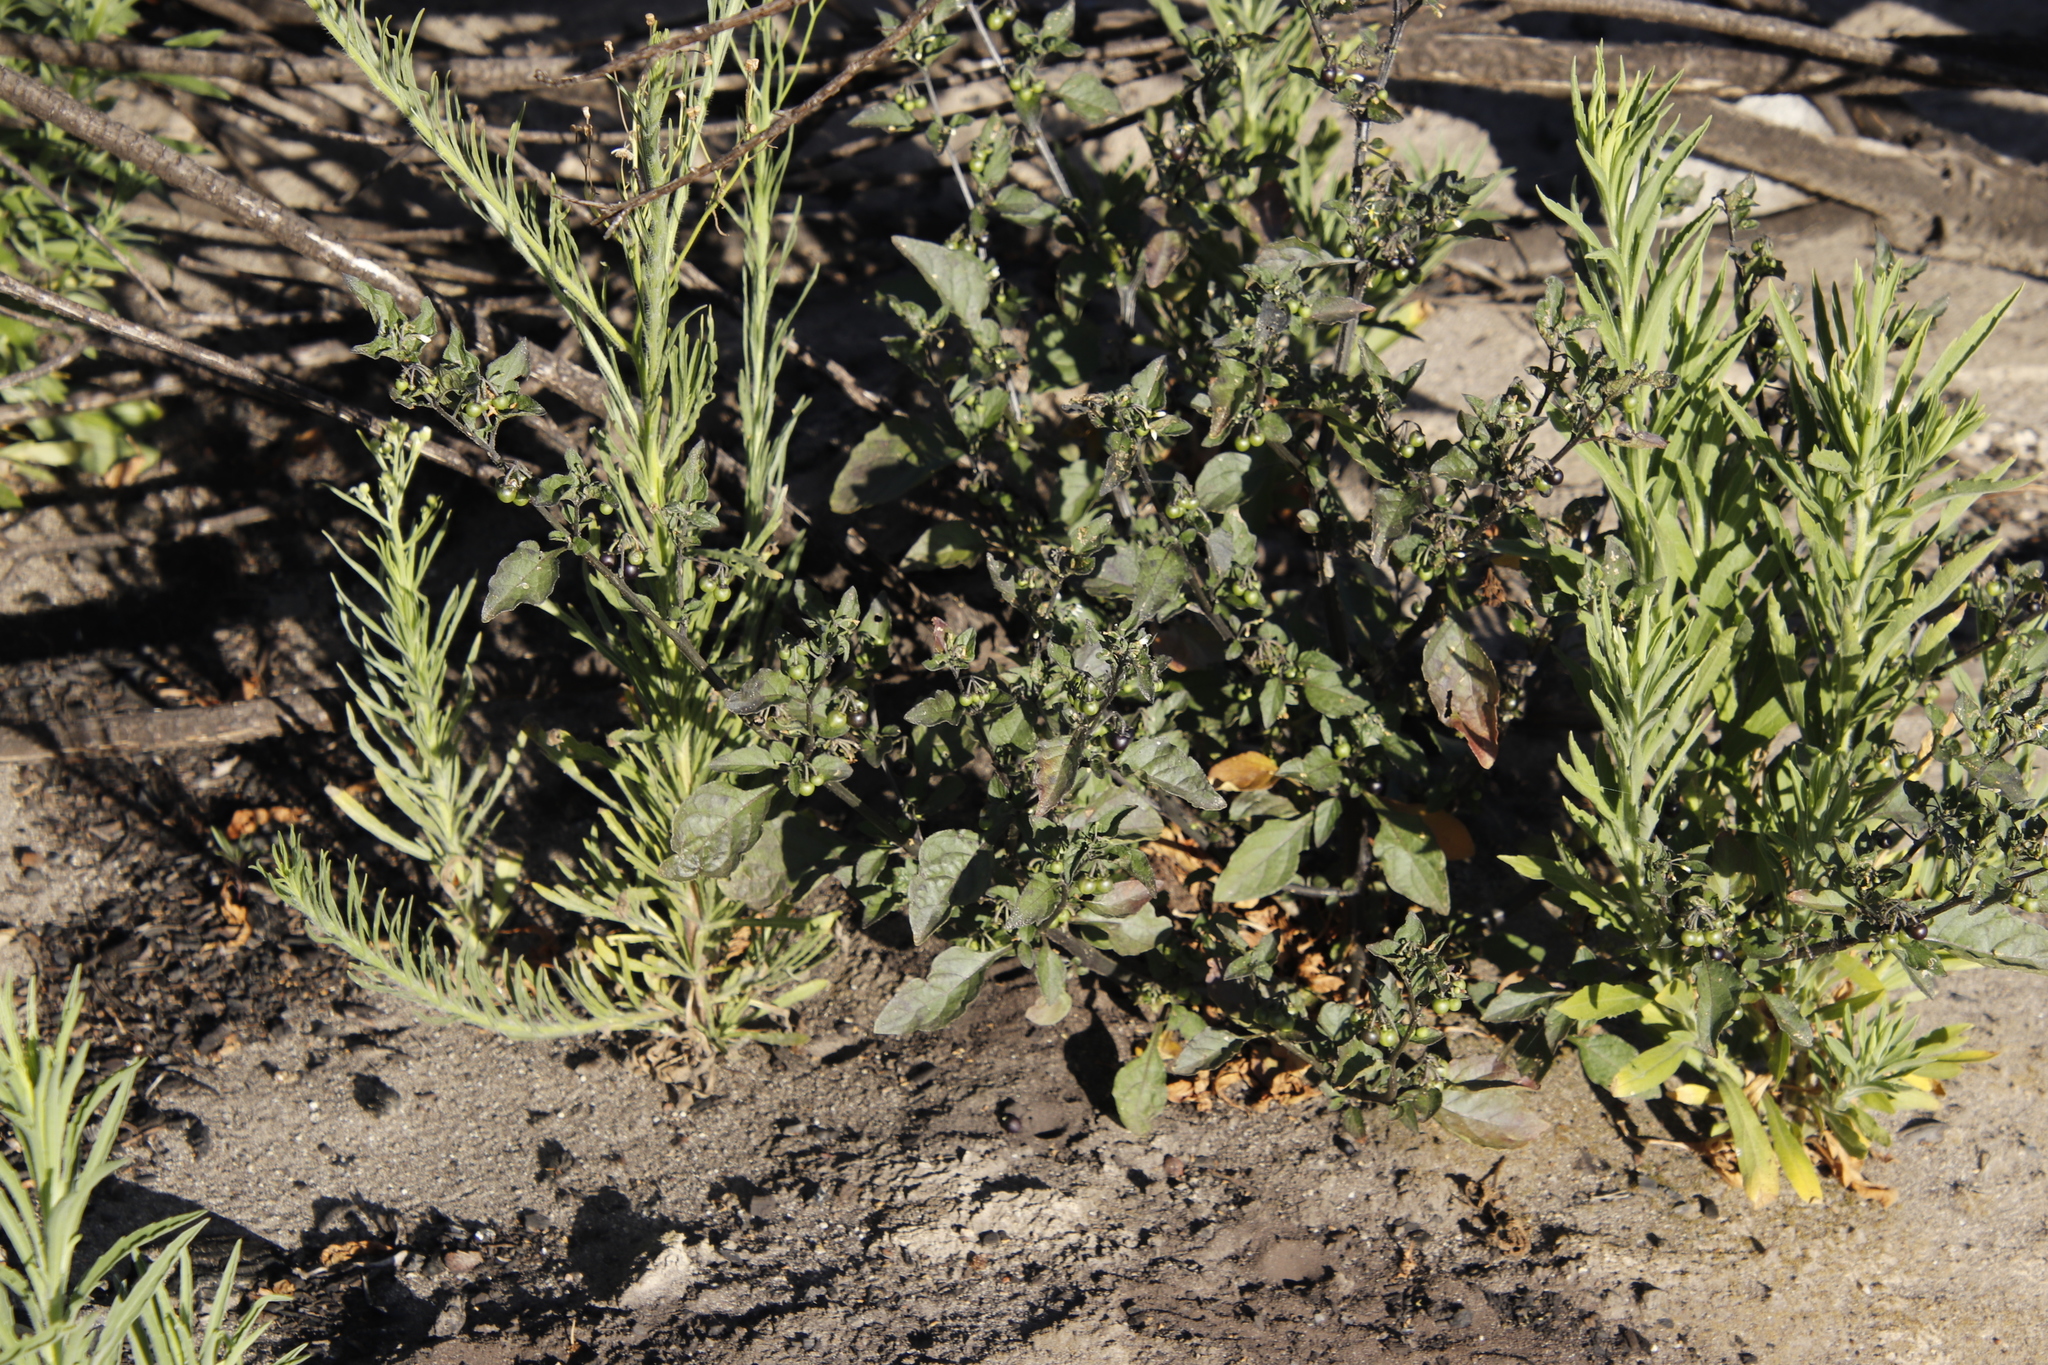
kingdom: Plantae
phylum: Tracheophyta
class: Magnoliopsida
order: Solanales
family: Solanaceae
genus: Solanum
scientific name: Solanum nigrum
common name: Black nightshade
